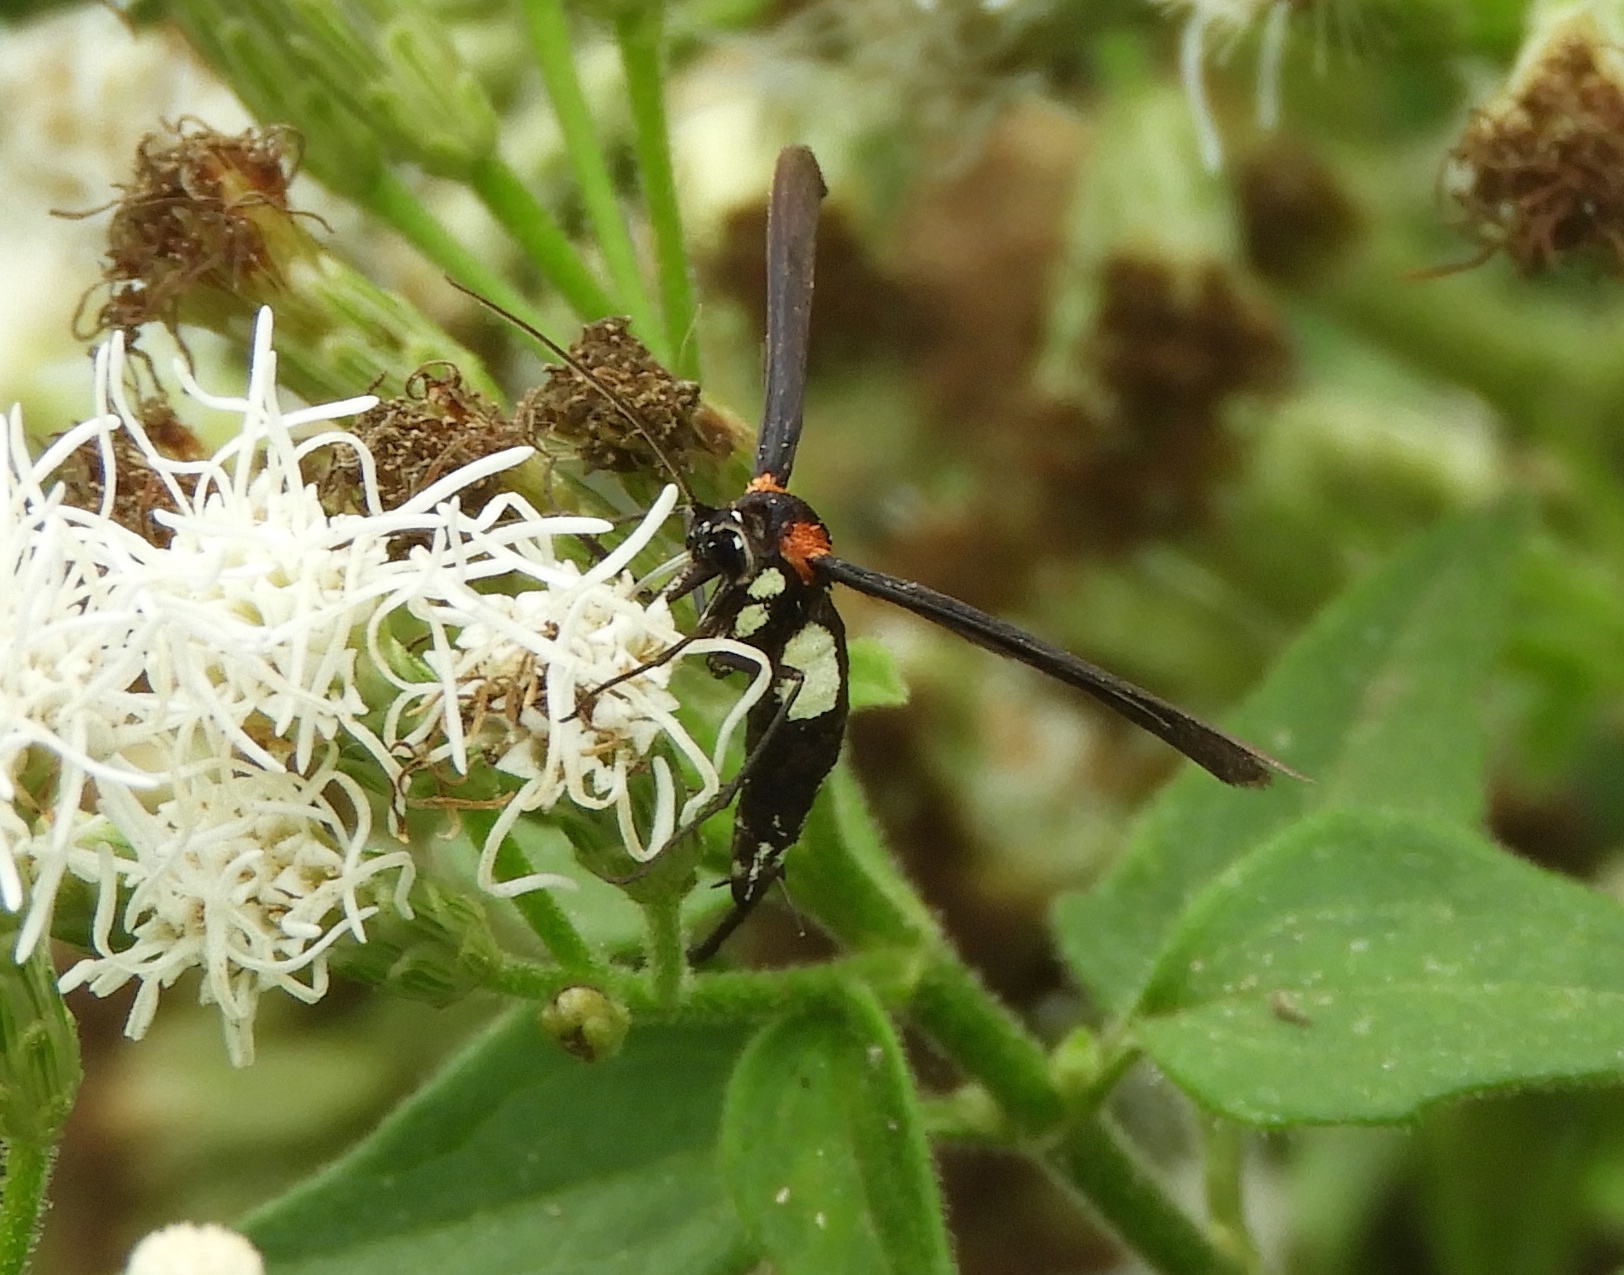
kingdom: Animalia
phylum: Arthropoda
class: Insecta
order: Lepidoptera
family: Pterophoridae
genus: Hellinsia
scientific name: Hellinsia chamelai
